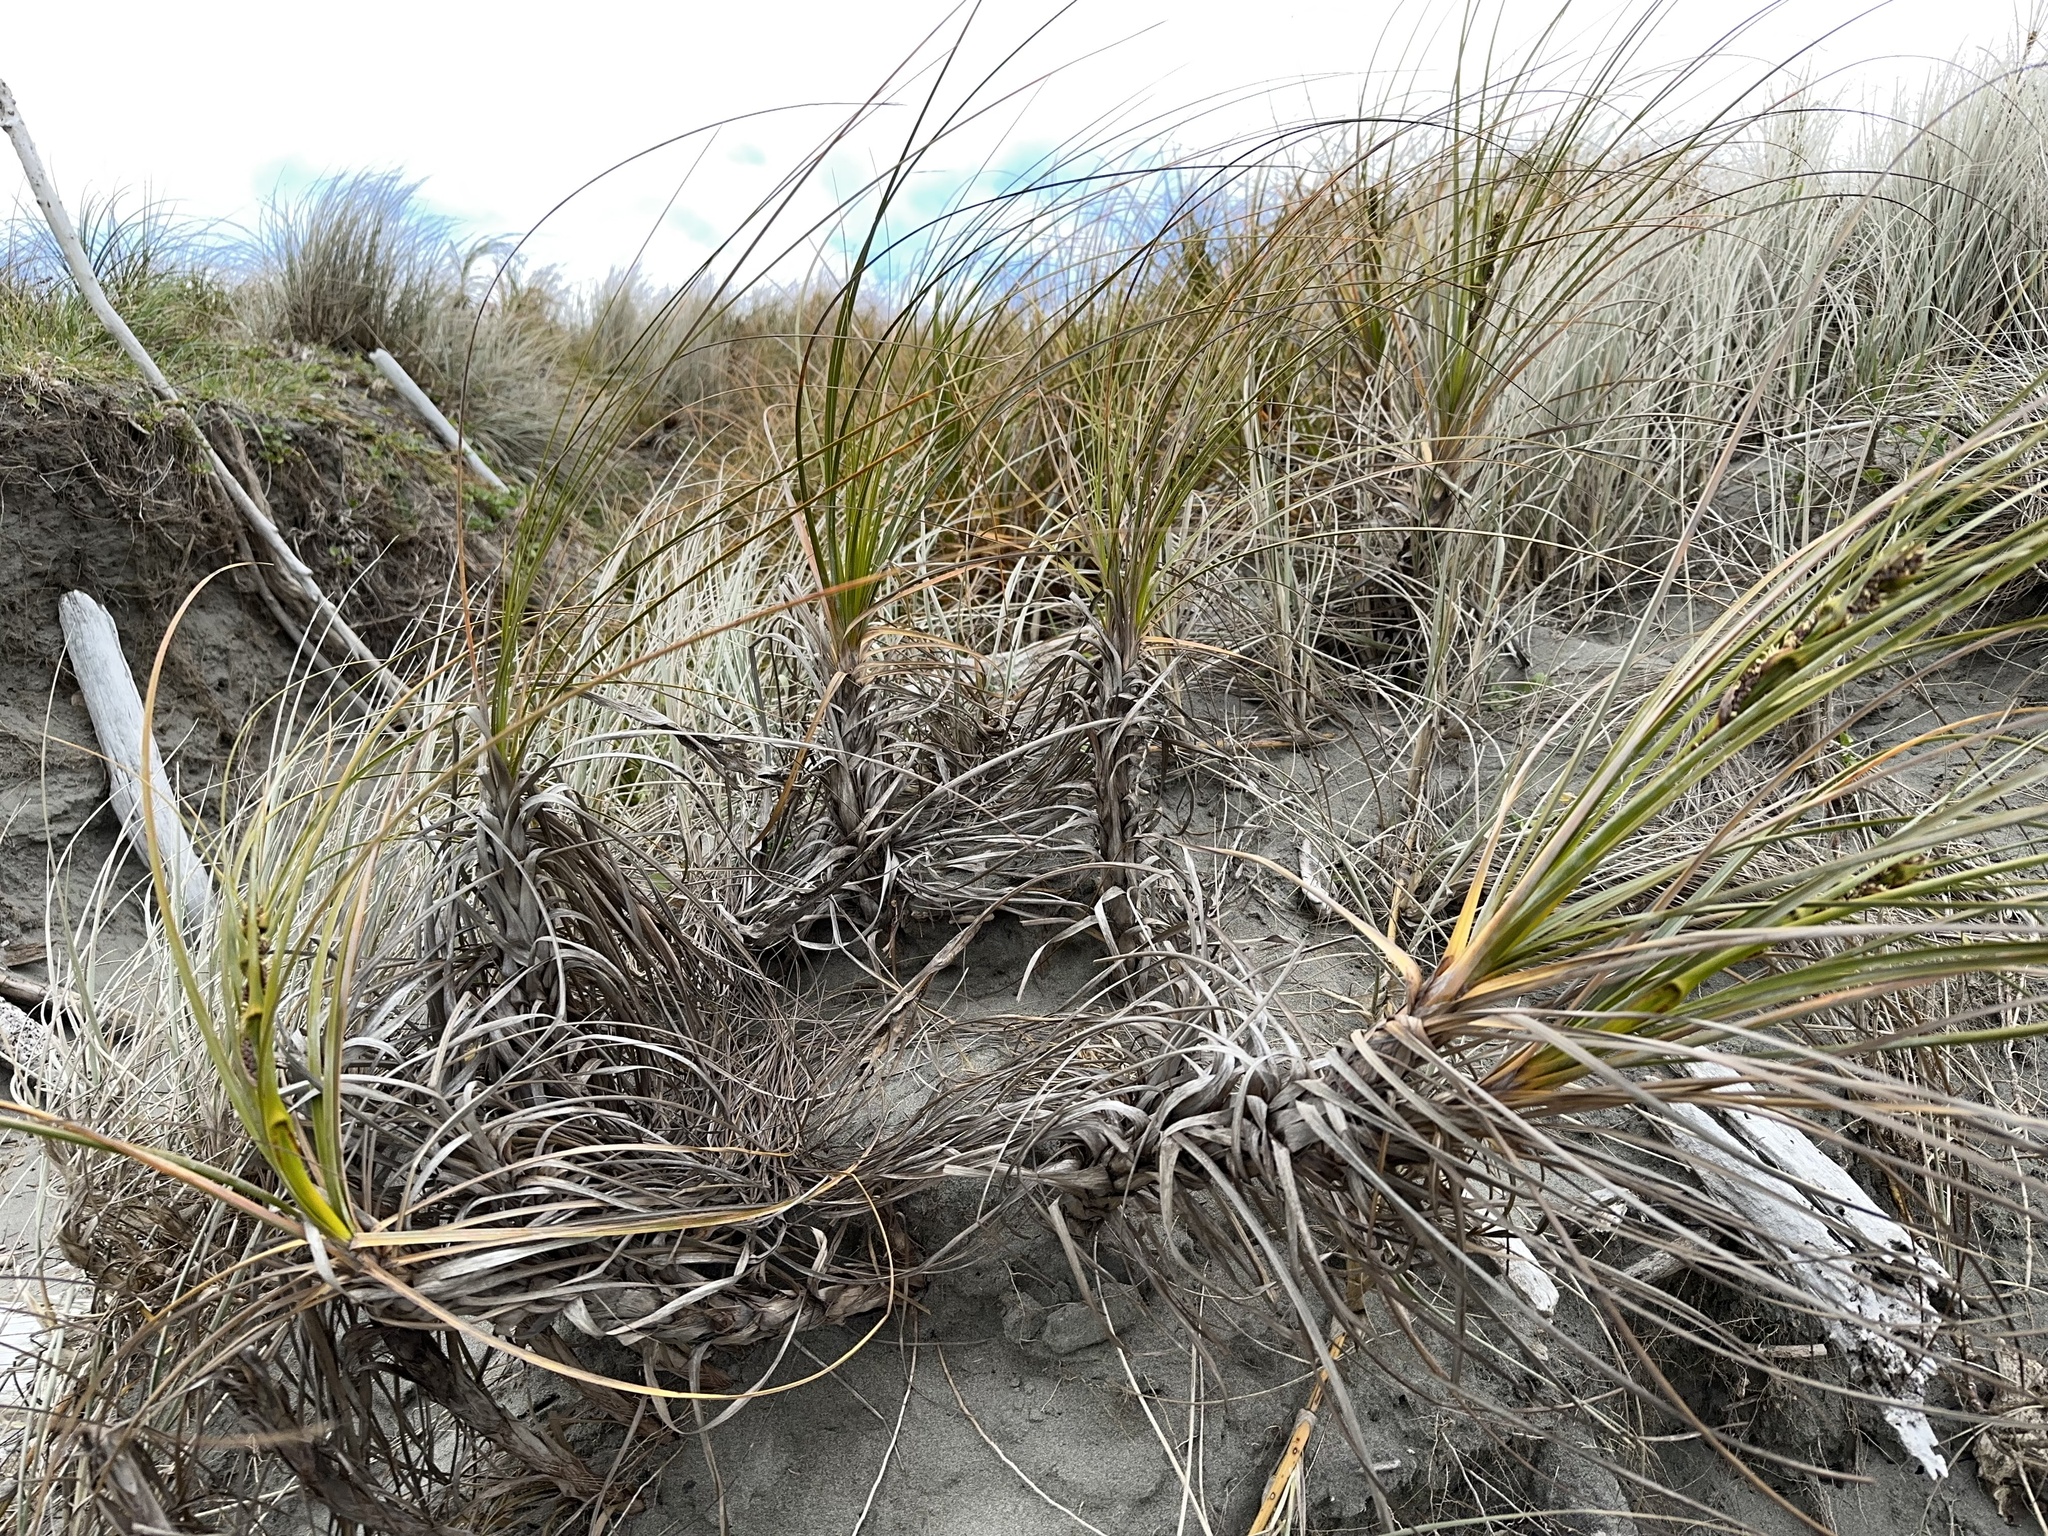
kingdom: Plantae
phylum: Tracheophyta
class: Liliopsida
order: Poales
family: Cyperaceae
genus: Ficinia
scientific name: Ficinia spiralis
